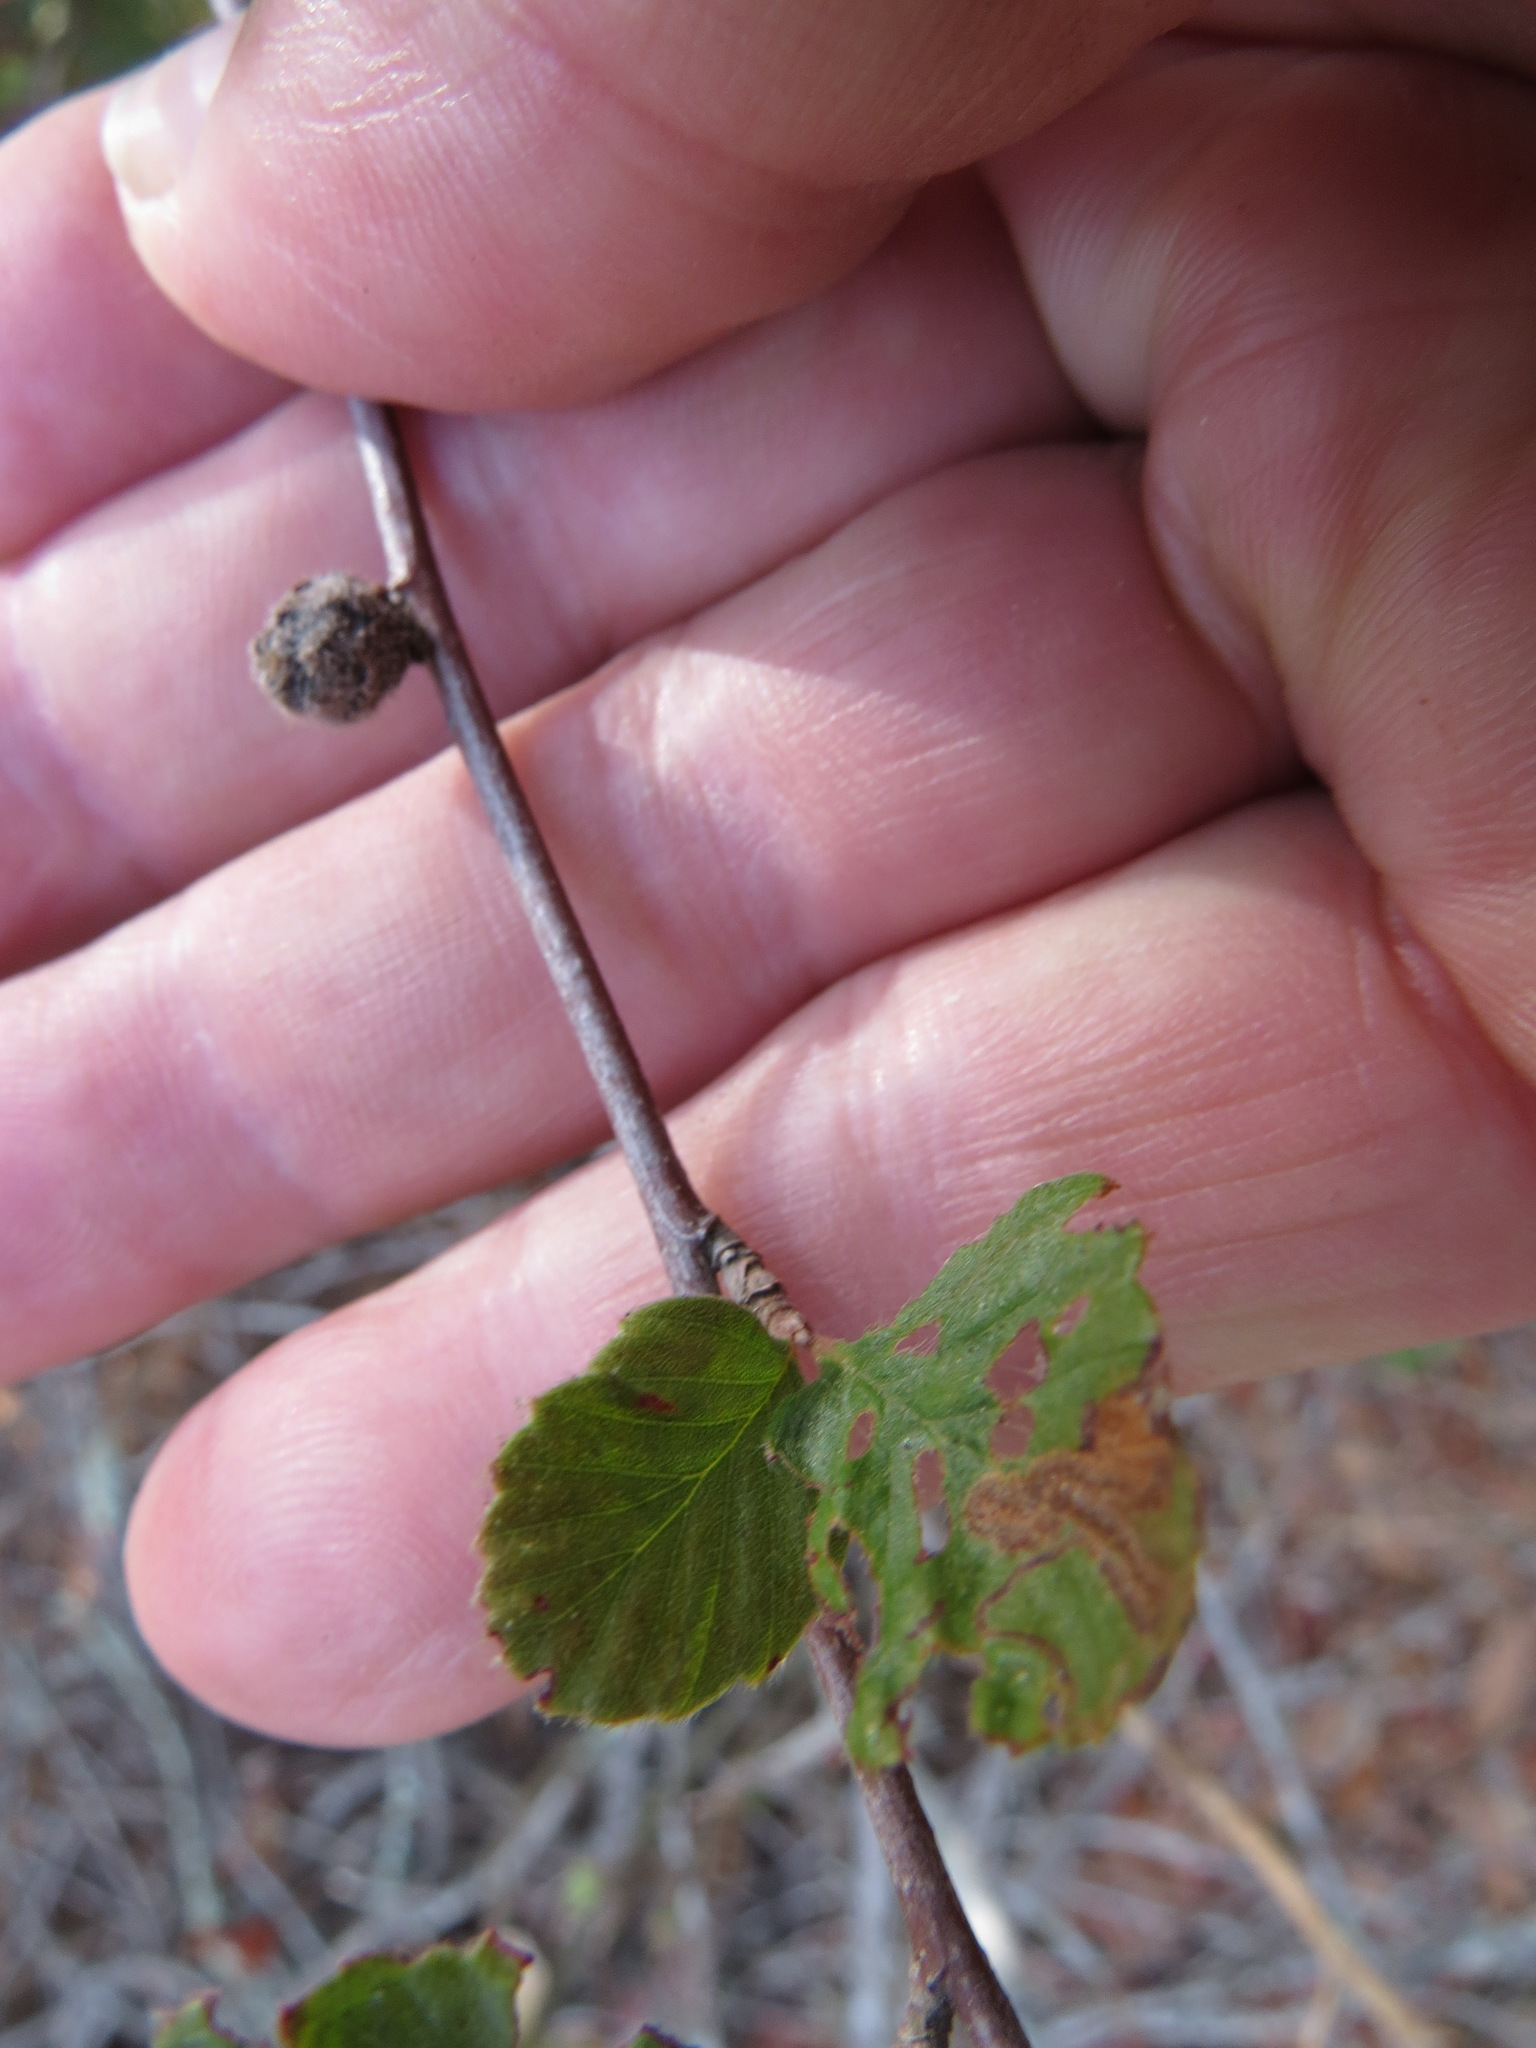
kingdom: Animalia
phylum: Arthropoda
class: Insecta
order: Diptera
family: Cecidomyiidae
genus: Dasineura
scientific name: Dasineura cercocarpi
